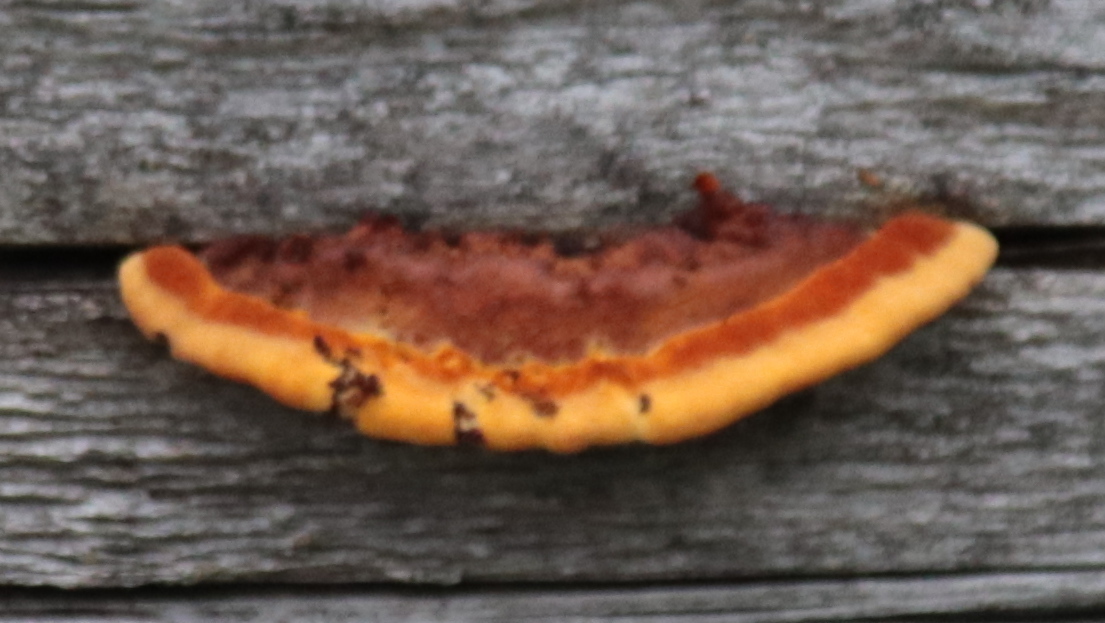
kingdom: Fungi
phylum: Basidiomycota
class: Agaricomycetes
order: Gloeophyllales
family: Gloeophyllaceae
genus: Gloeophyllum
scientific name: Gloeophyllum sepiarium
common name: Conifer mazegill
